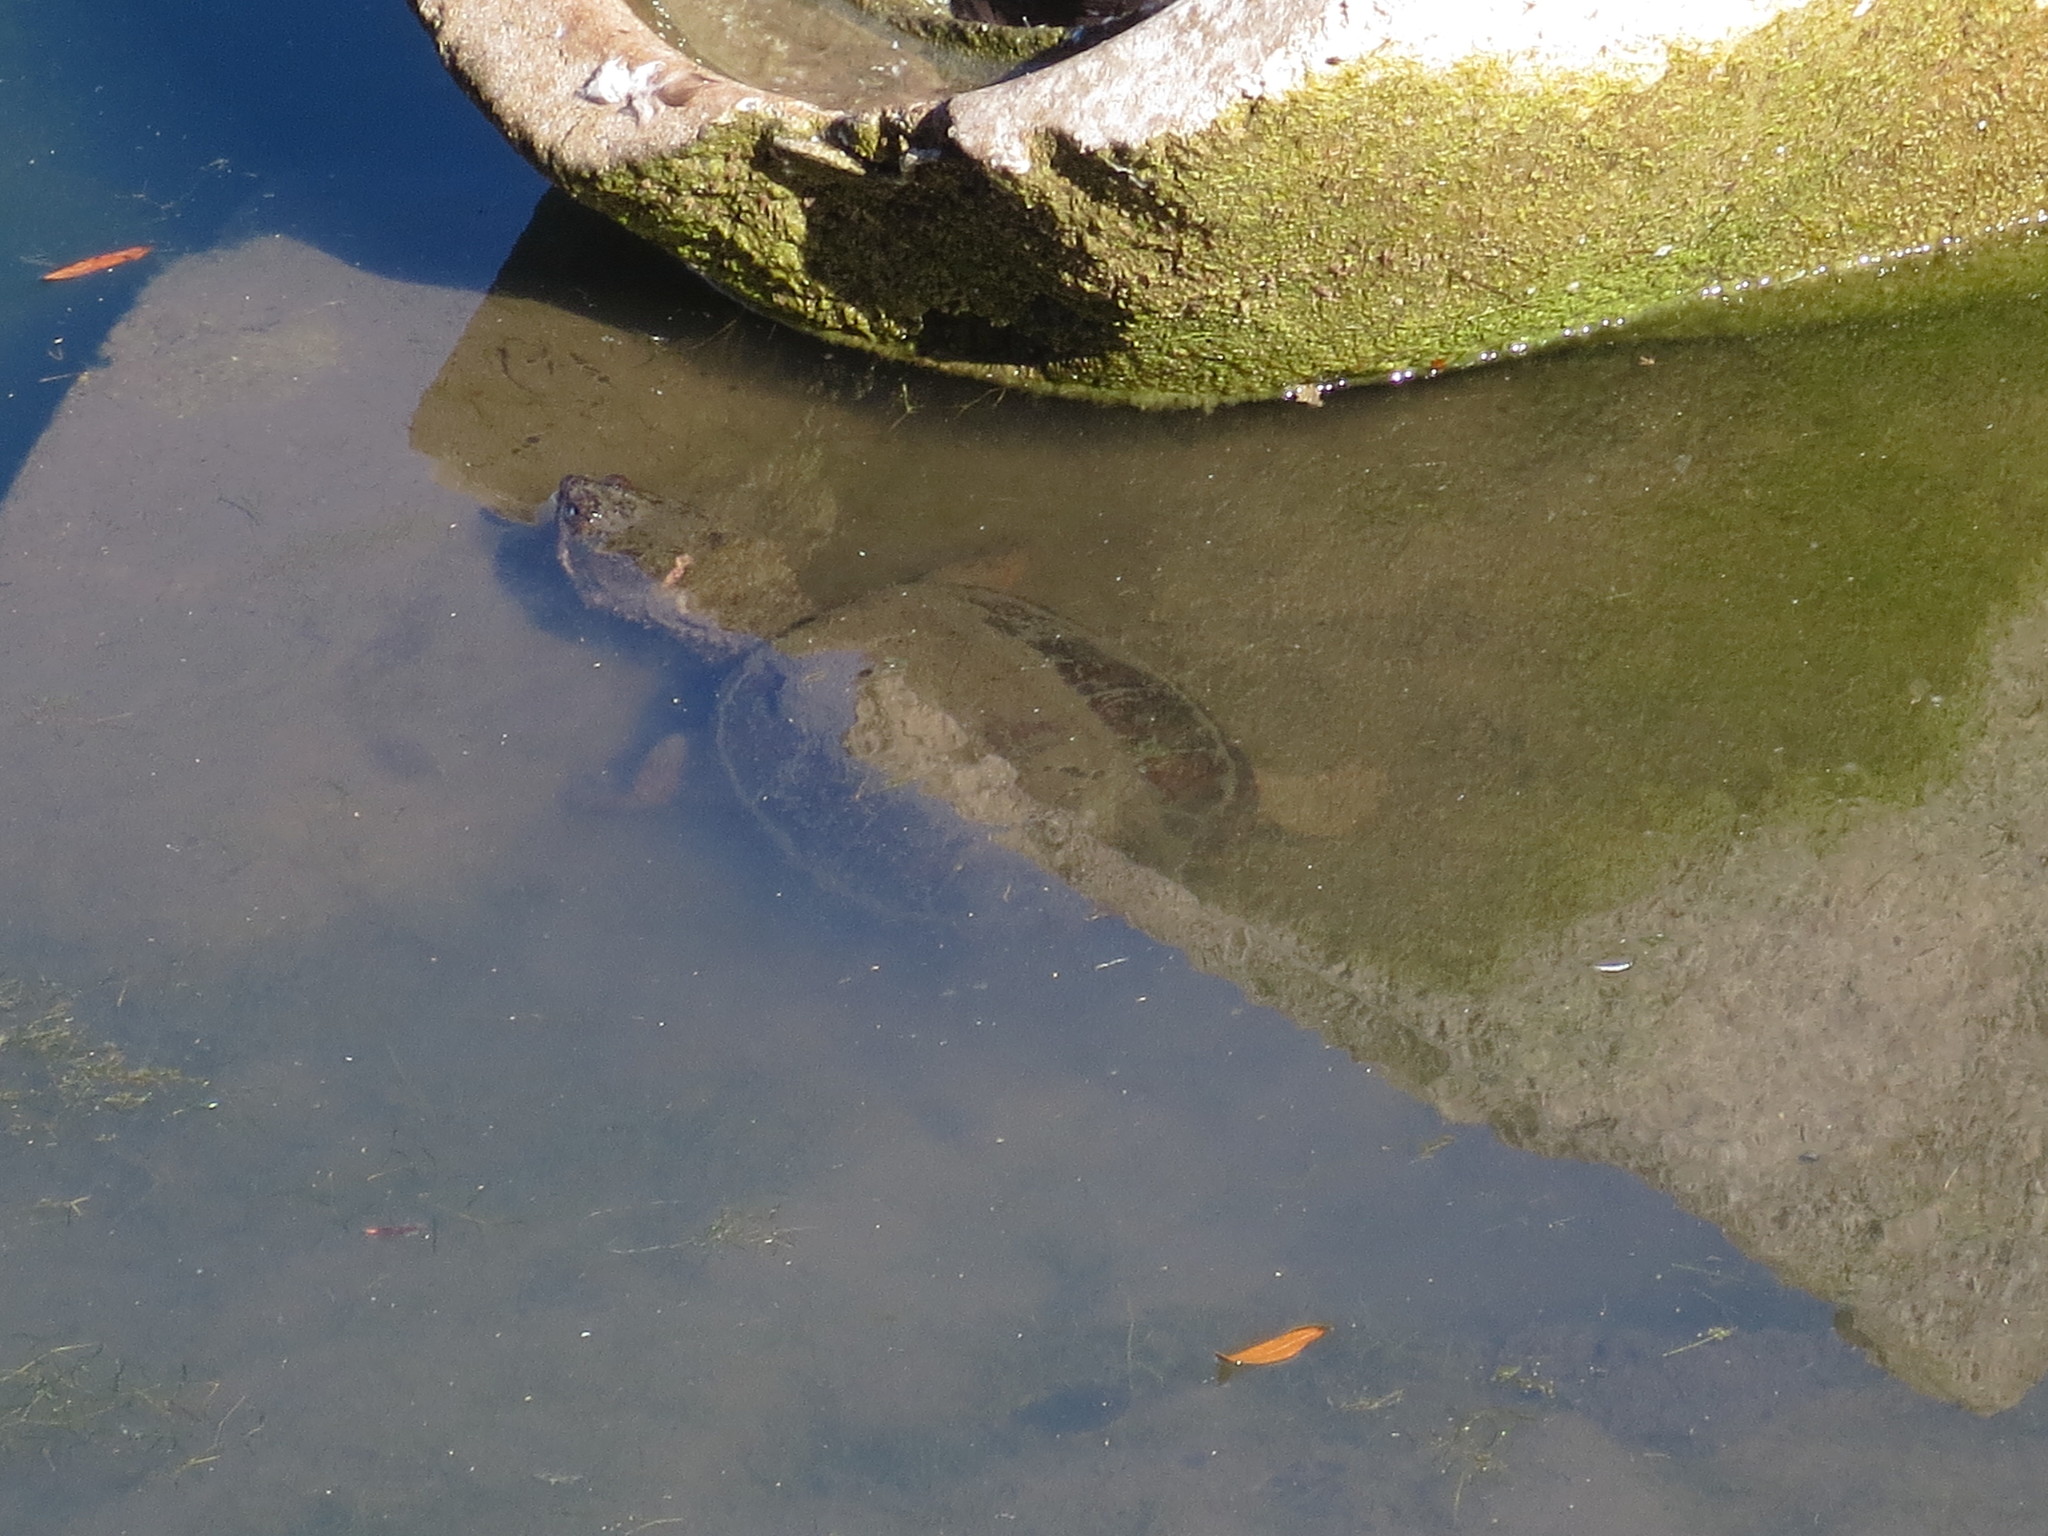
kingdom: Animalia
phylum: Chordata
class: Testudines
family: Chelydridae
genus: Chelydra
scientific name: Chelydra serpentina
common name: Common snapping turtle
